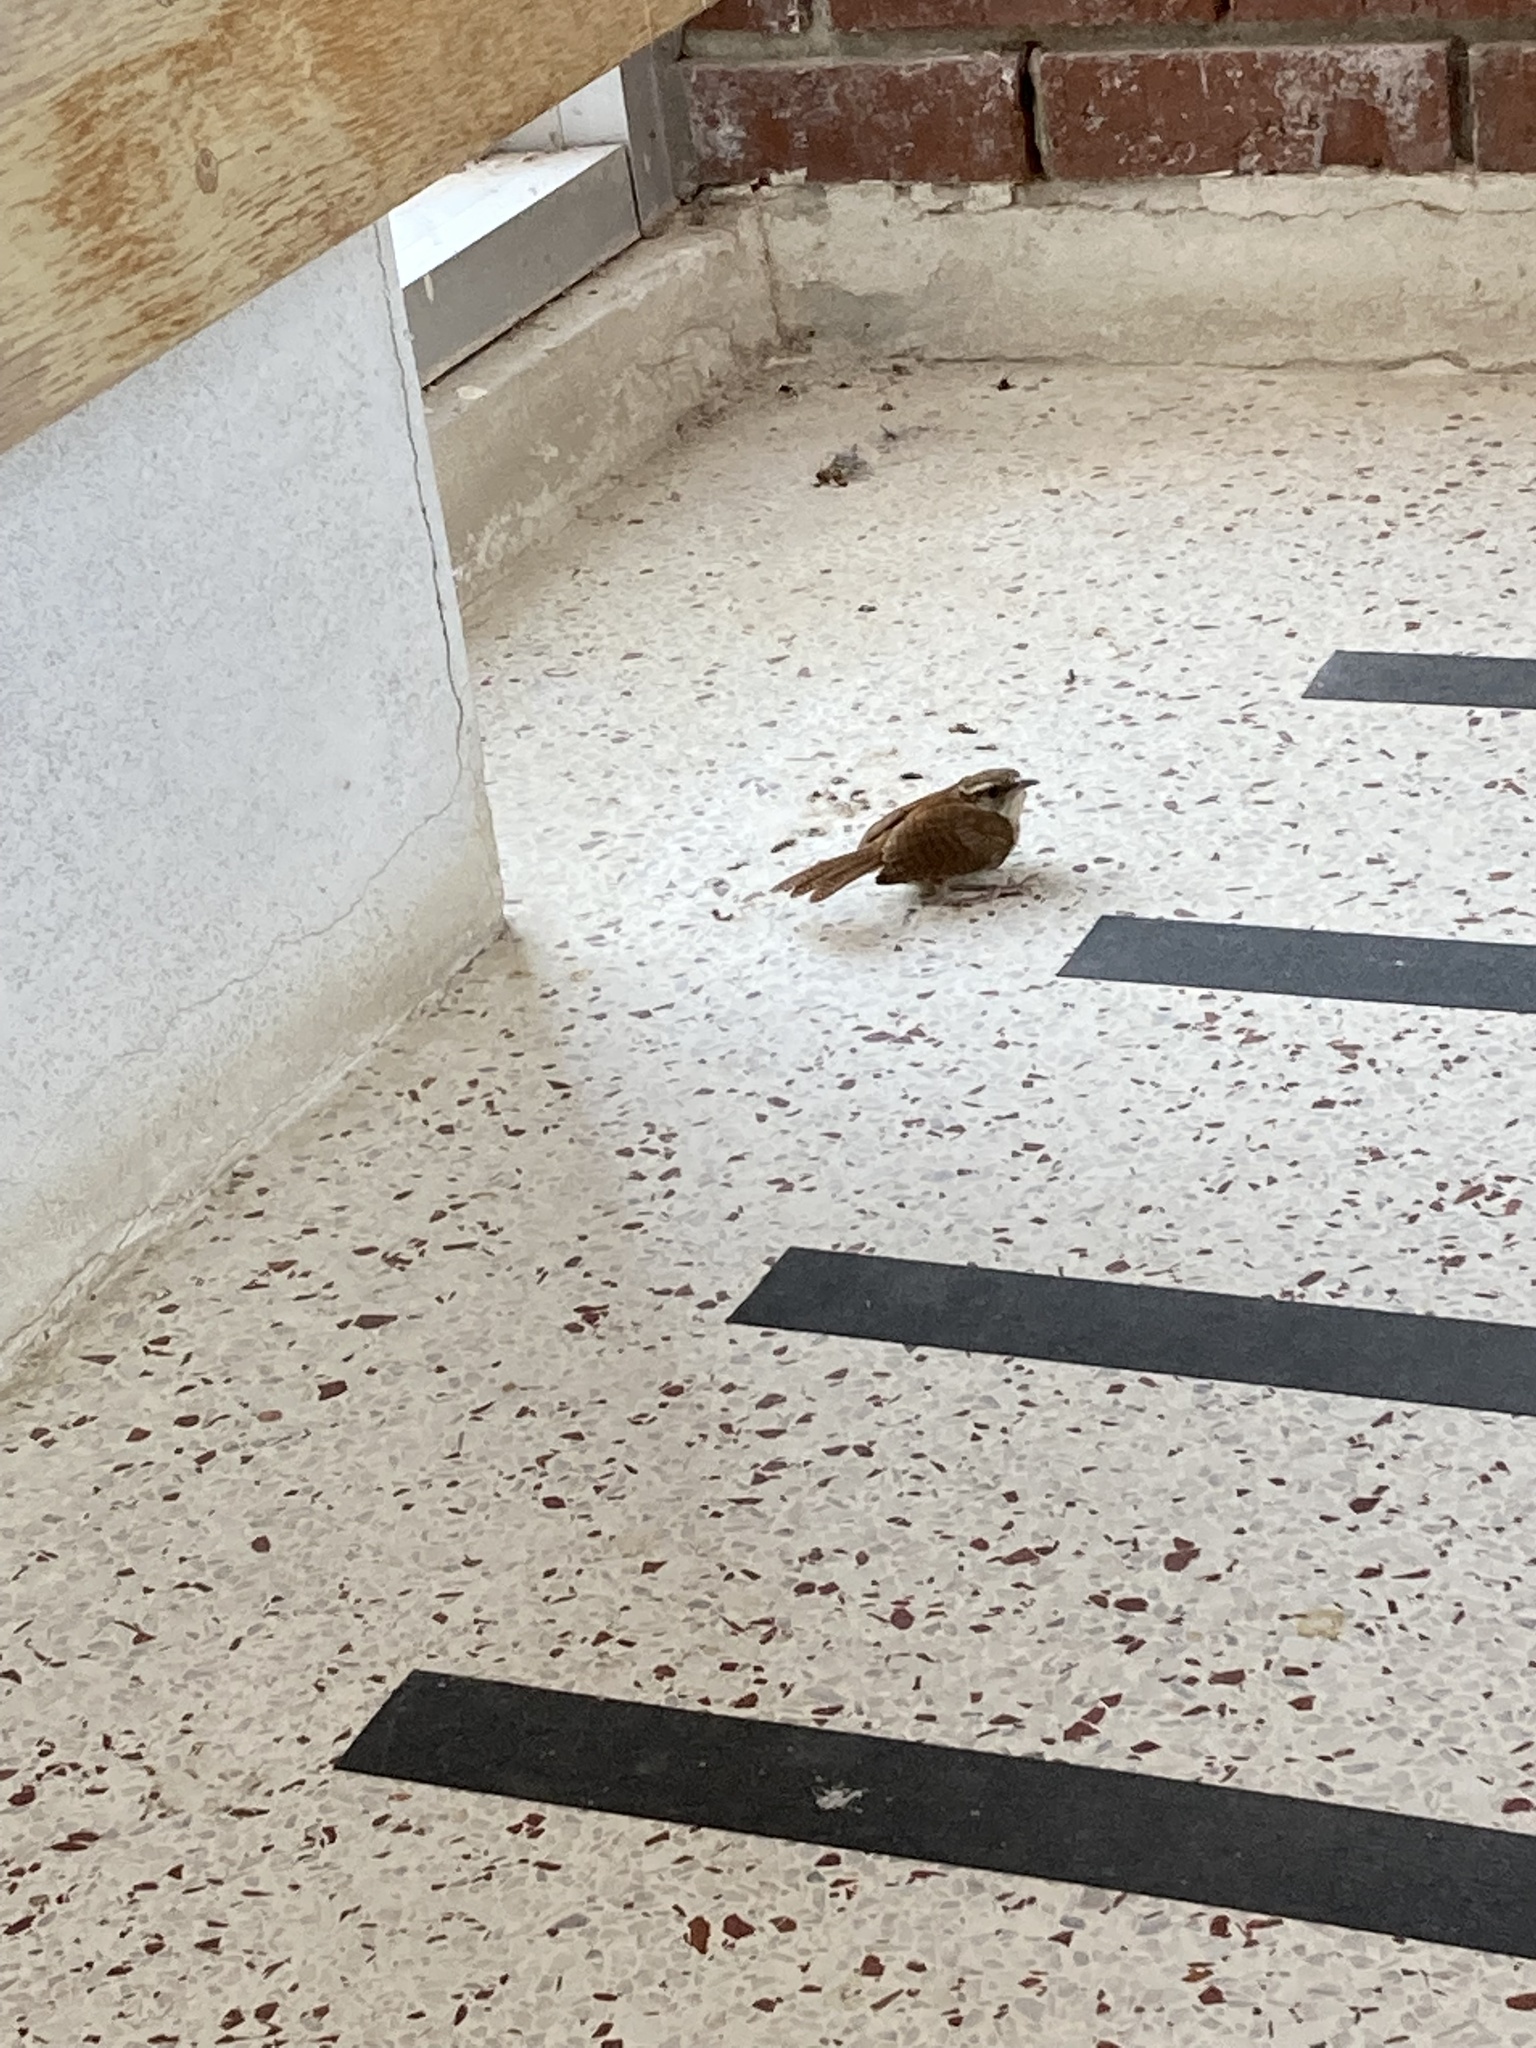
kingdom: Animalia
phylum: Chordata
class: Aves
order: Passeriformes
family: Troglodytidae
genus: Thryothorus
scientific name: Thryothorus ludovicianus
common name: Carolina wren
